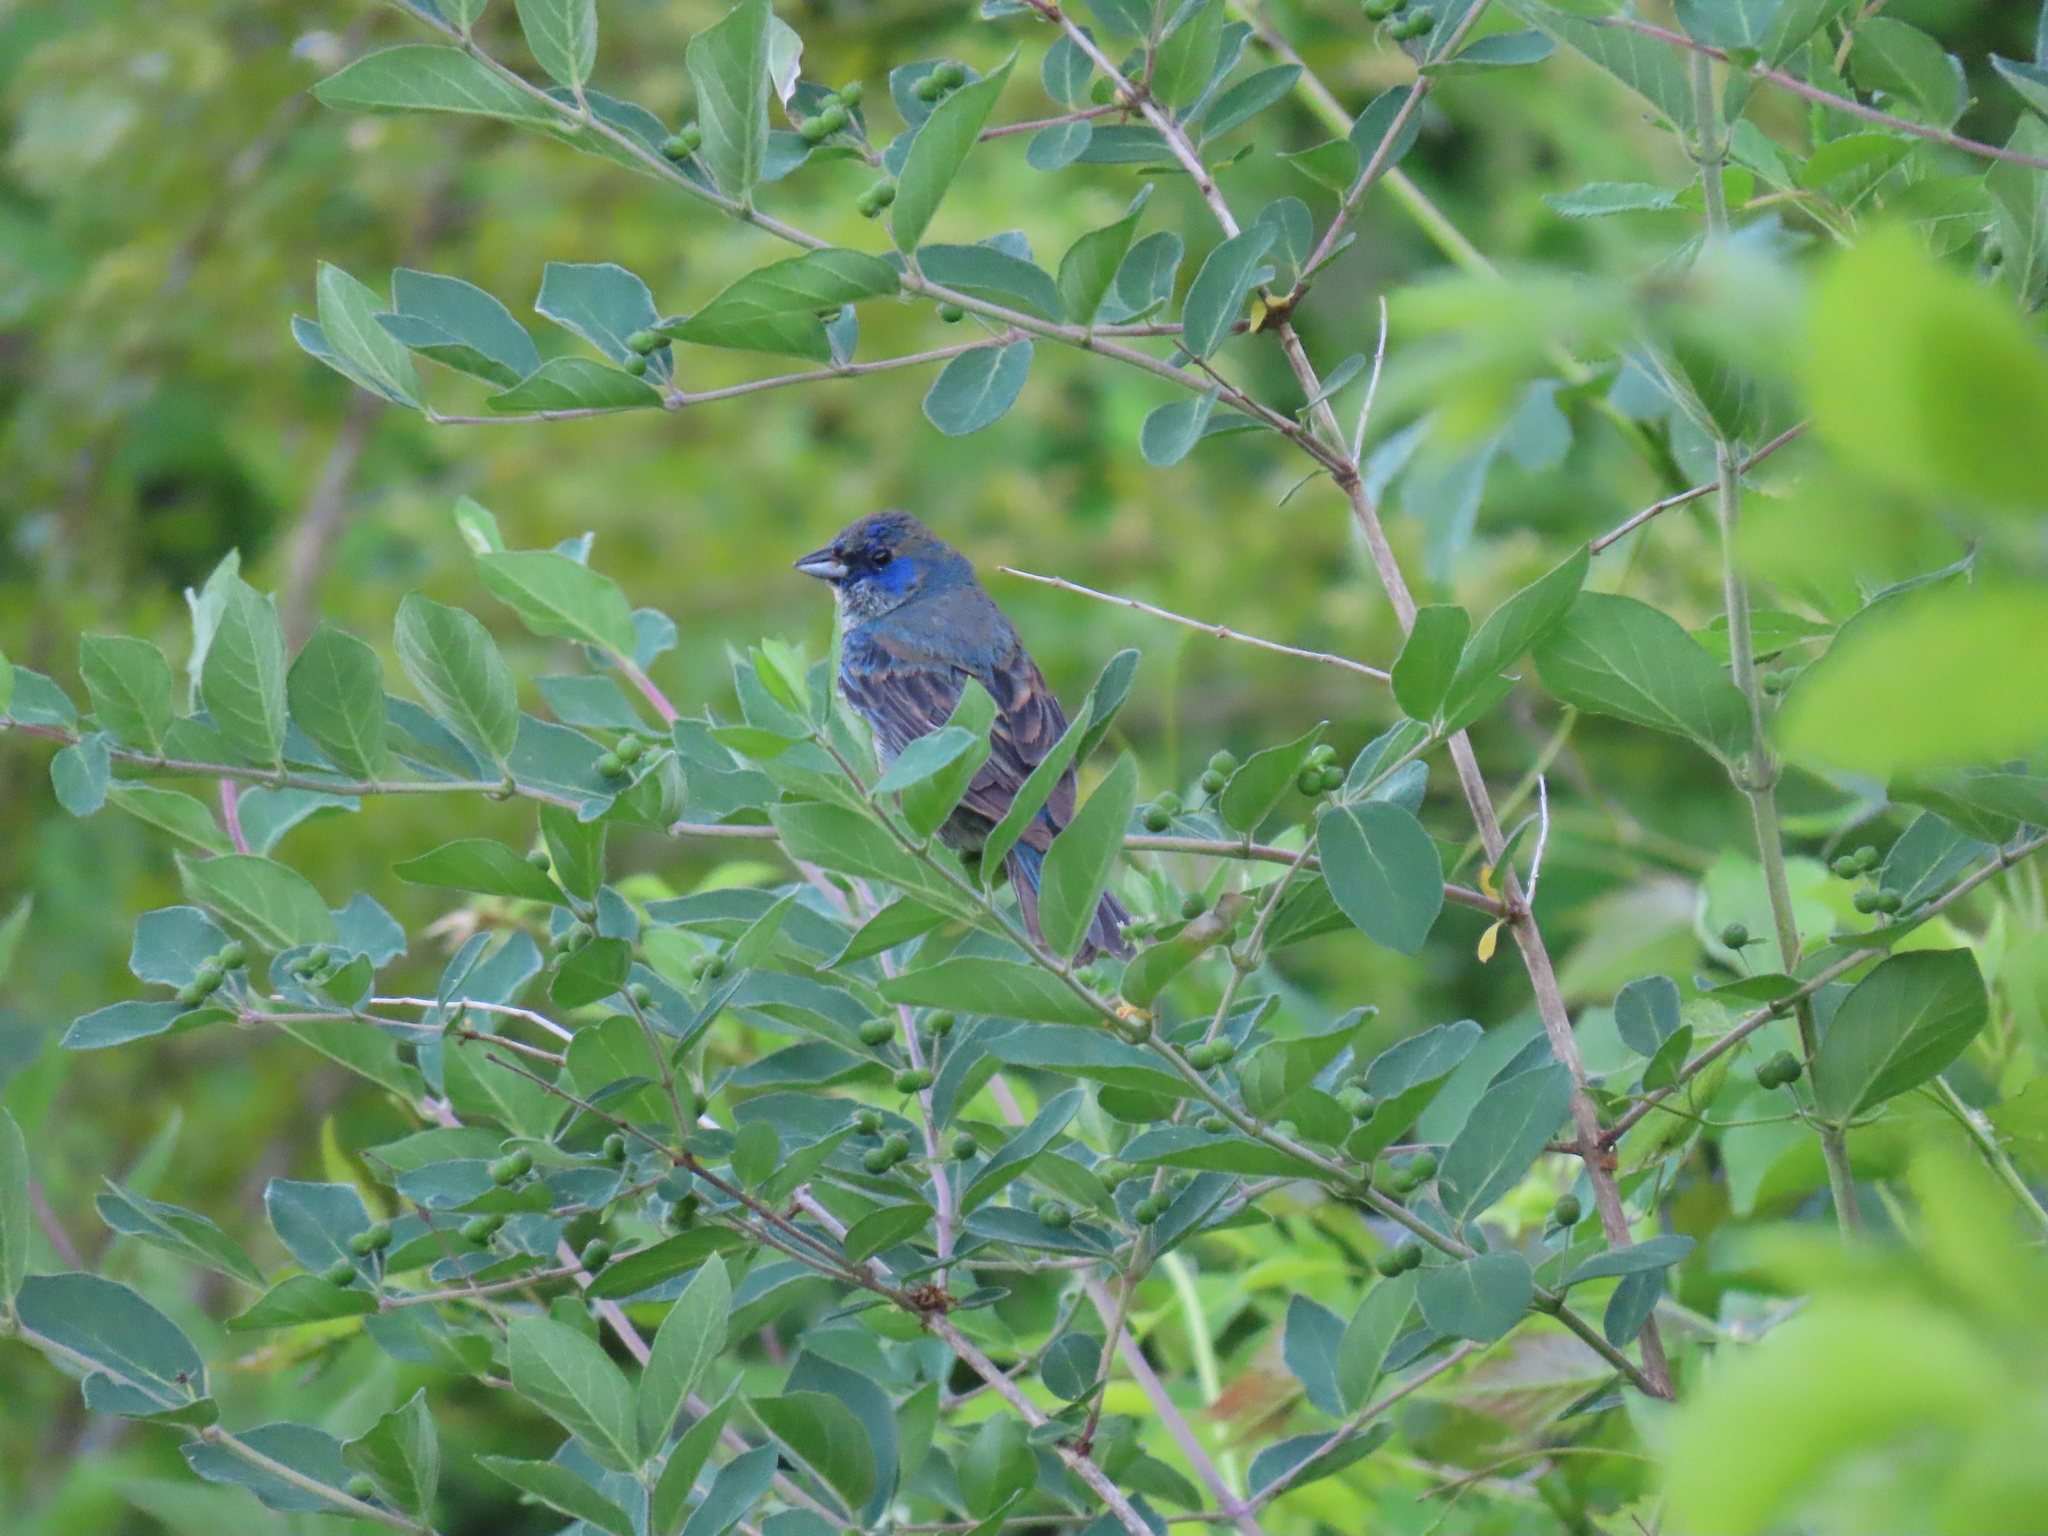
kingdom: Animalia
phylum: Chordata
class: Aves
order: Passeriformes
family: Cardinalidae
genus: Passerina
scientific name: Passerina cyanea
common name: Indigo bunting
